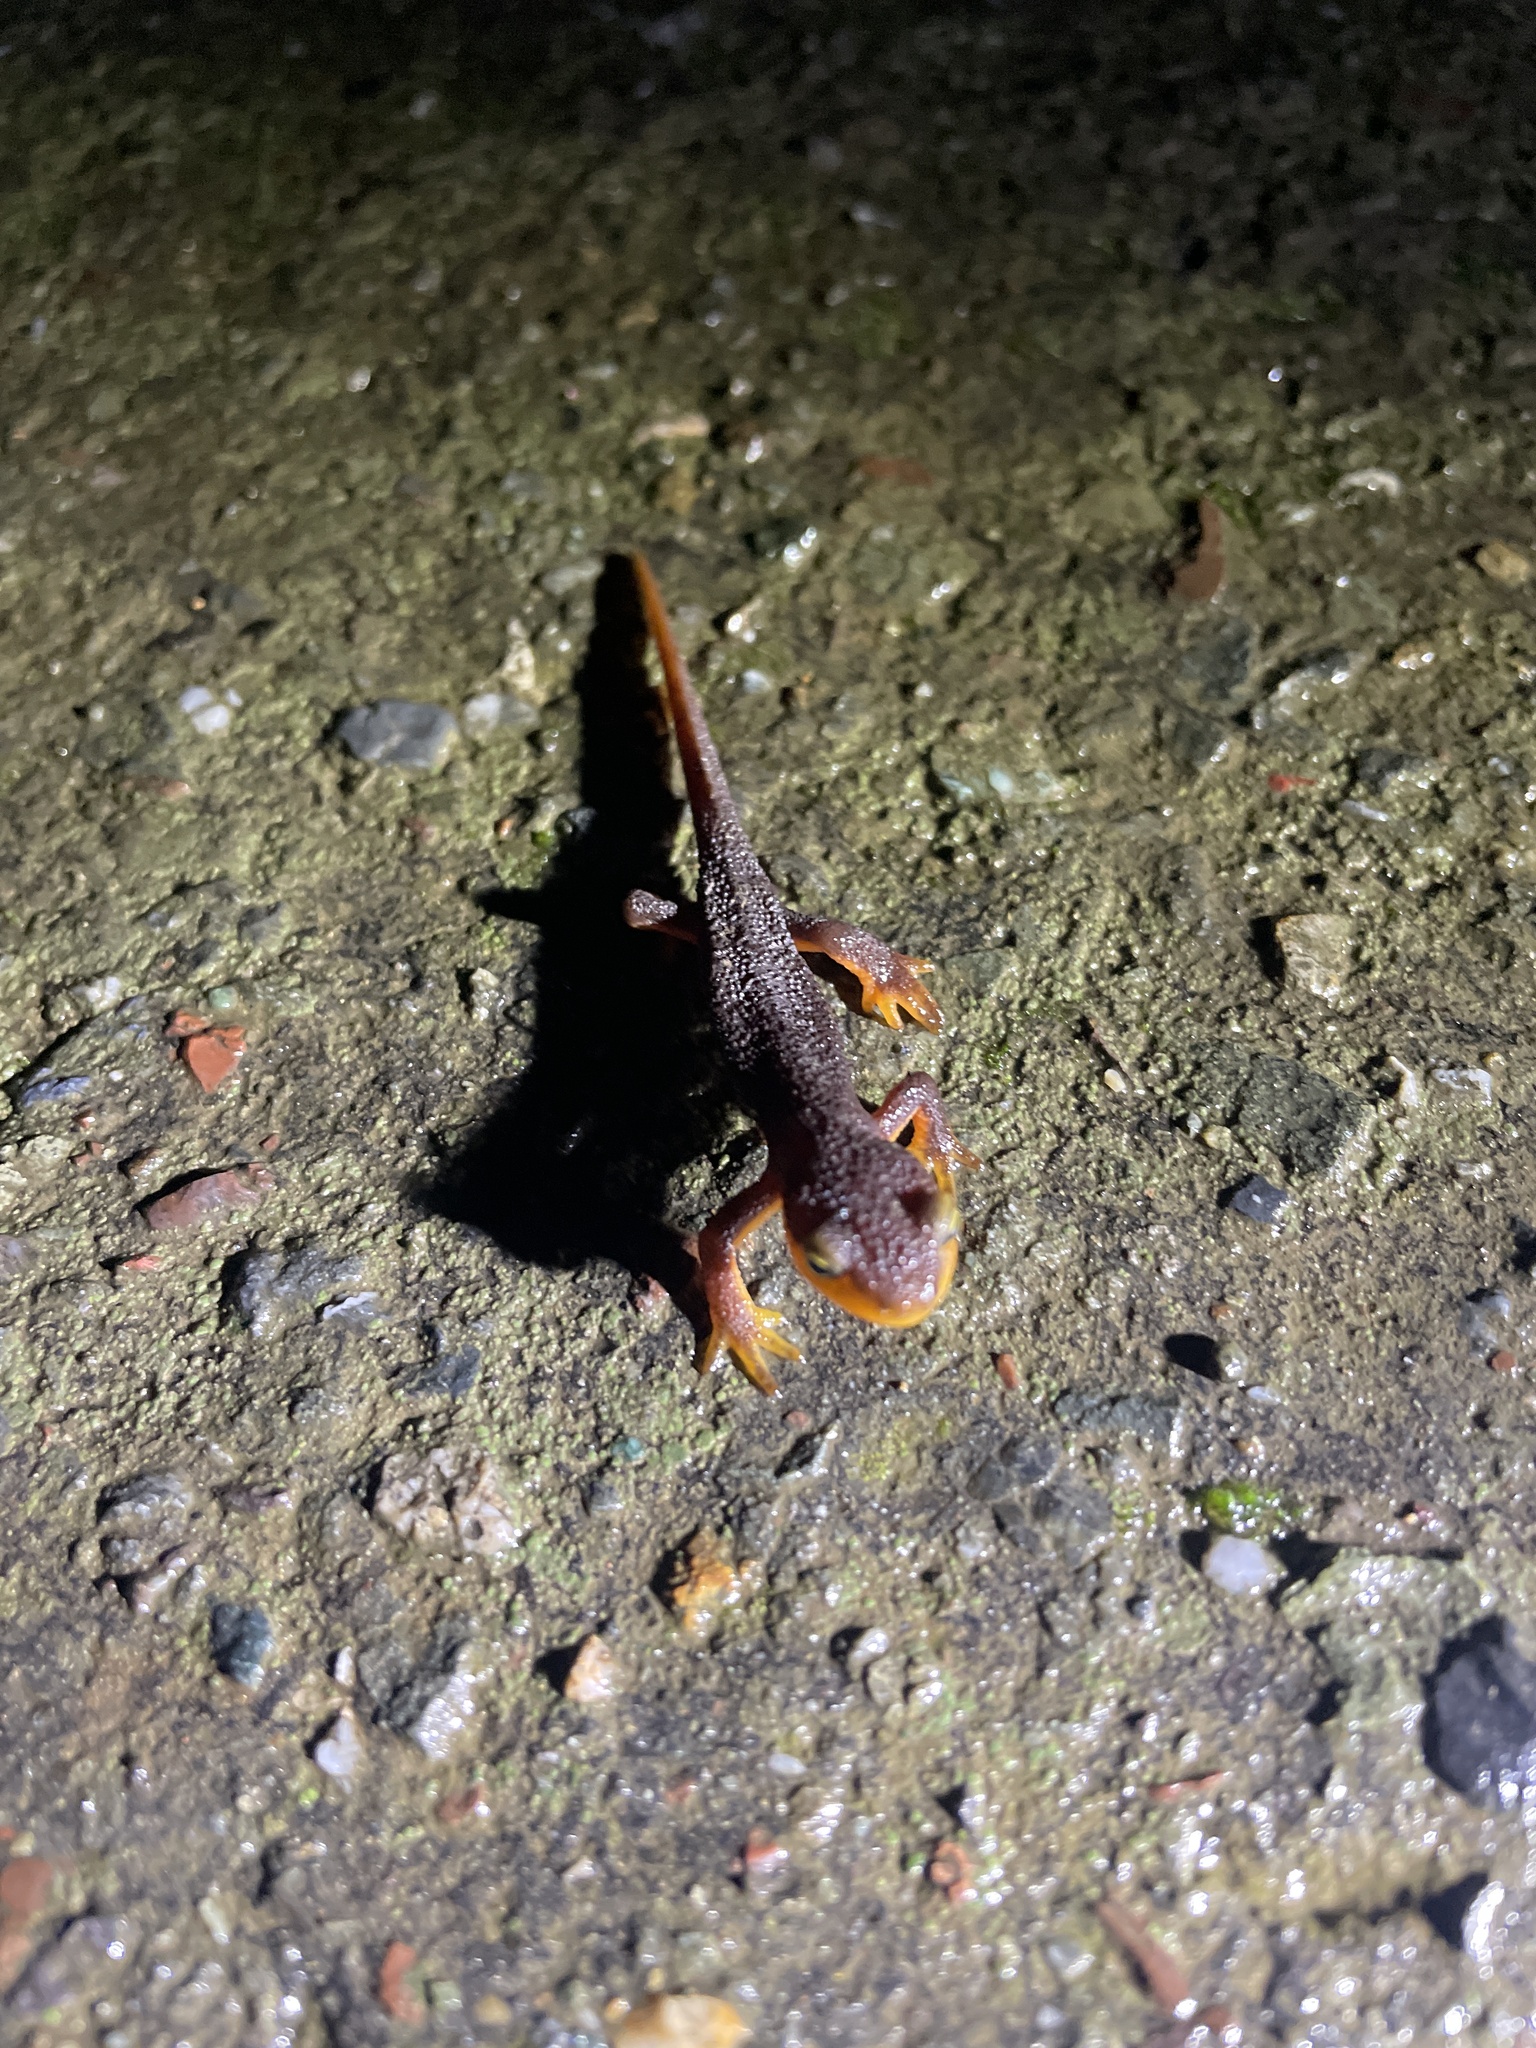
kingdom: Animalia
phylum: Chordata
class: Amphibia
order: Caudata
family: Salamandridae
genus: Taricha
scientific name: Taricha torosa
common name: California newt
